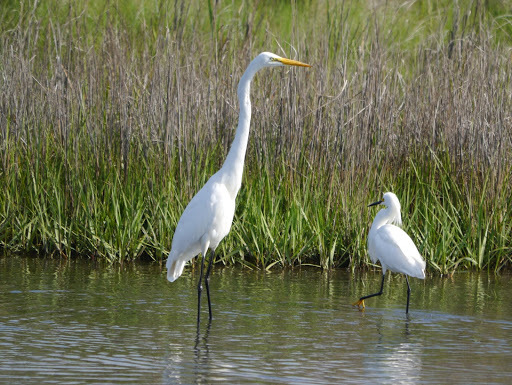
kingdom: Animalia
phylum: Chordata
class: Aves
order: Pelecaniformes
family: Ardeidae
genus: Ardea
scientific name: Ardea alba
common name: Great egret
